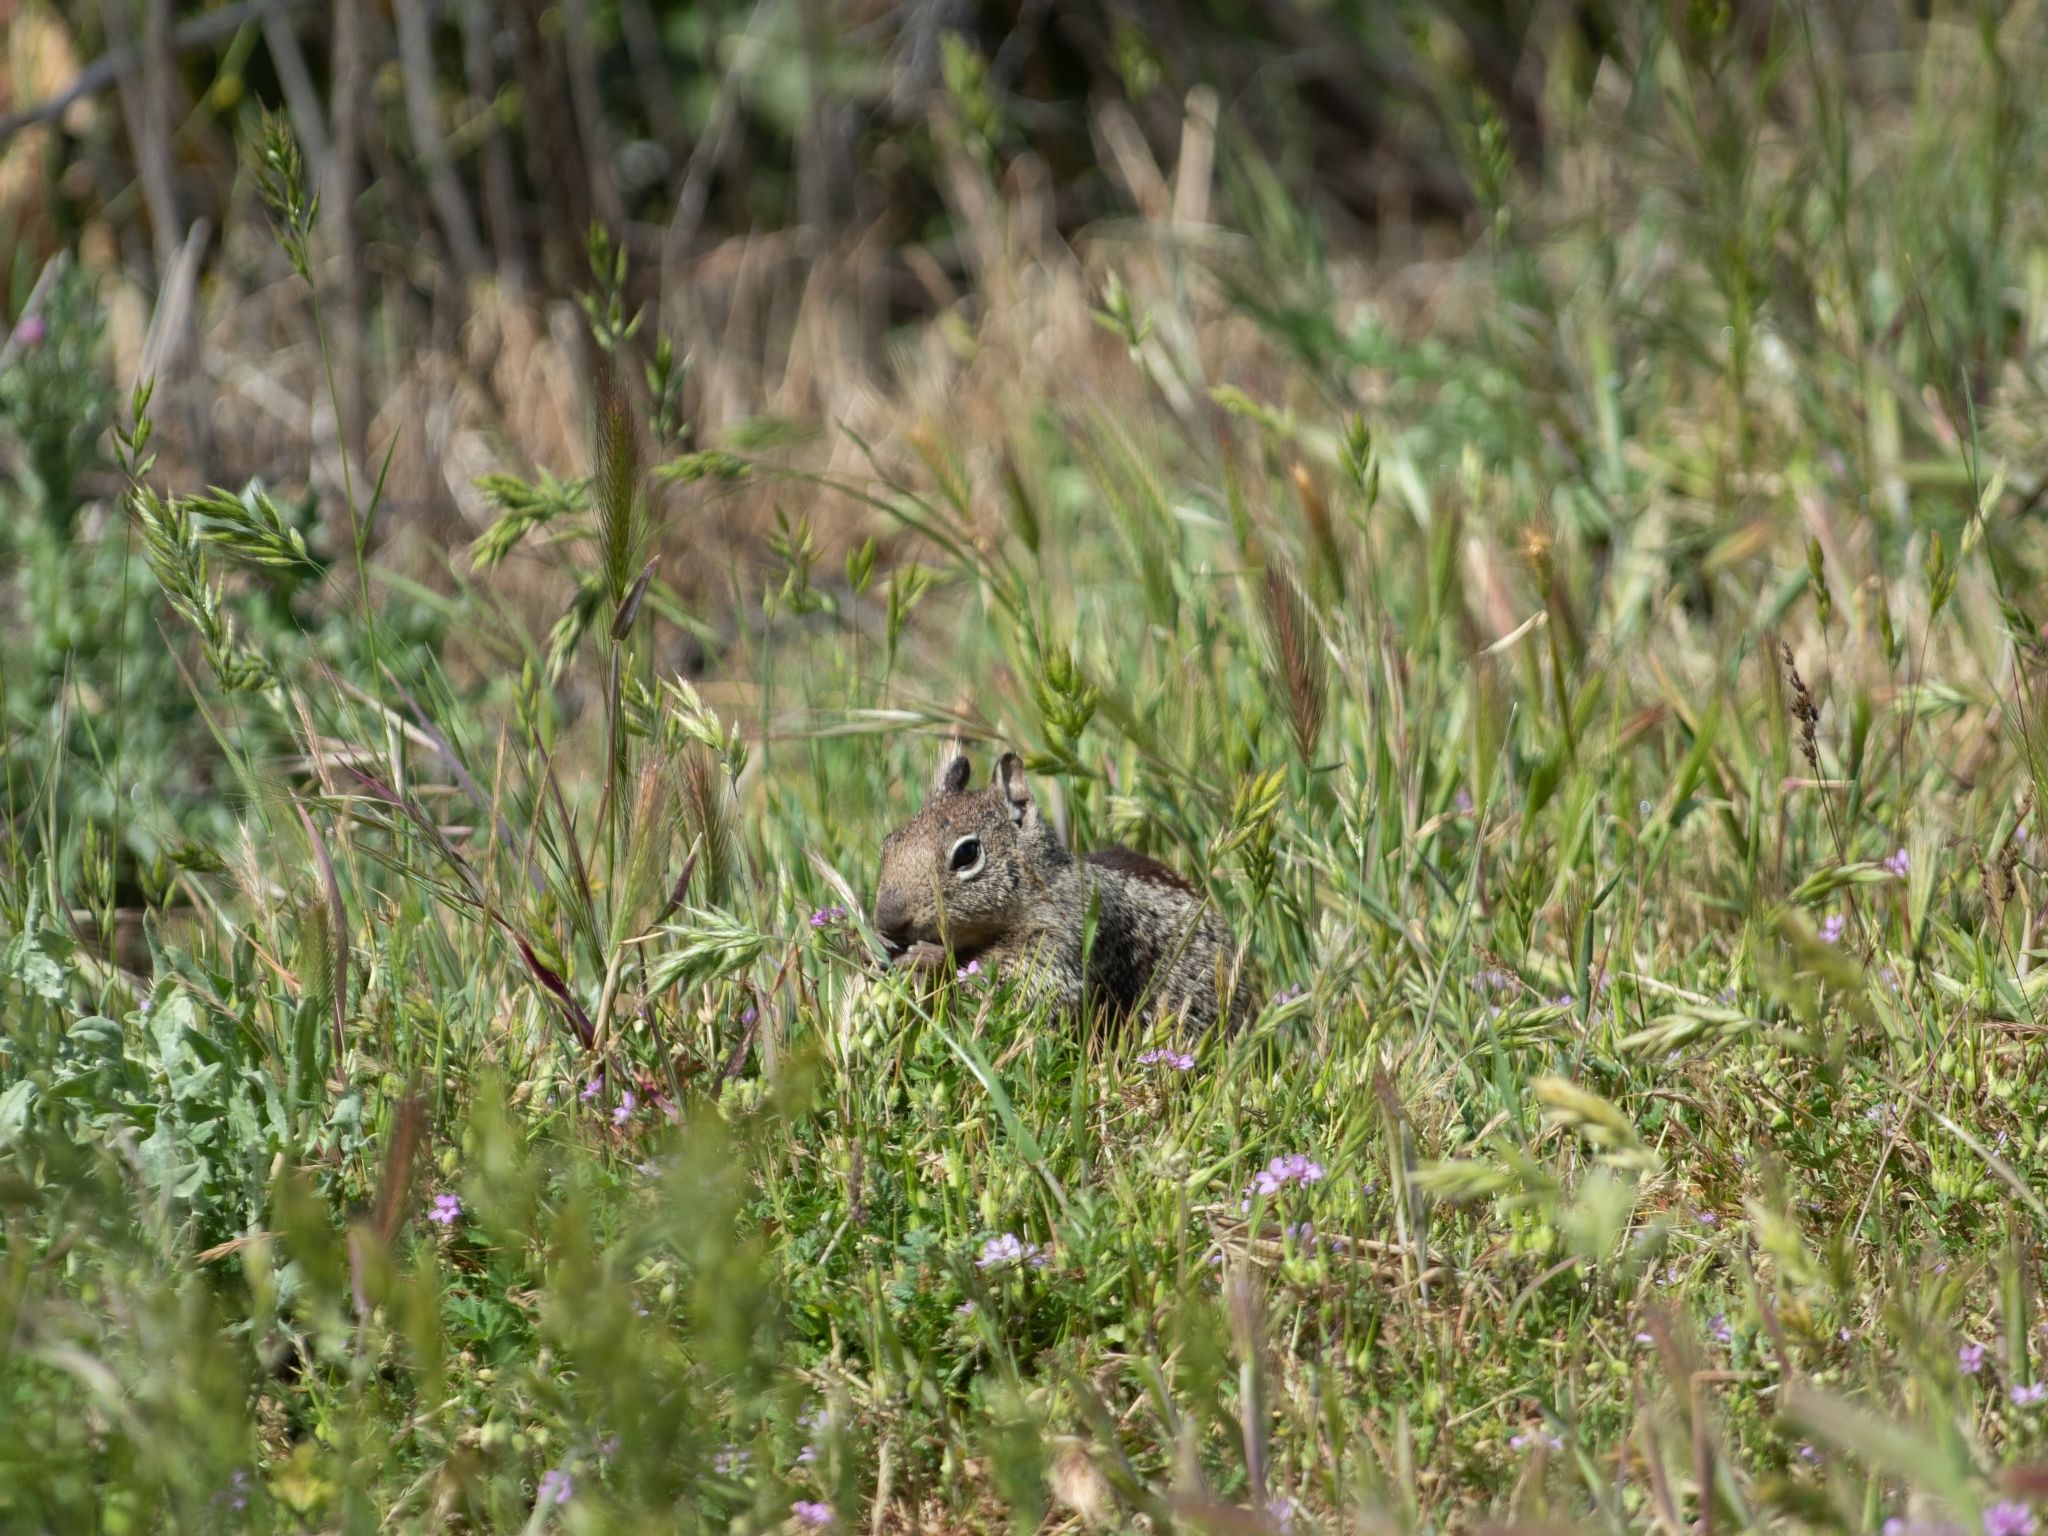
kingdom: Animalia
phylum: Chordata
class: Mammalia
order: Rodentia
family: Sciuridae
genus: Otospermophilus
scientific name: Otospermophilus beecheyi
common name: California ground squirrel
